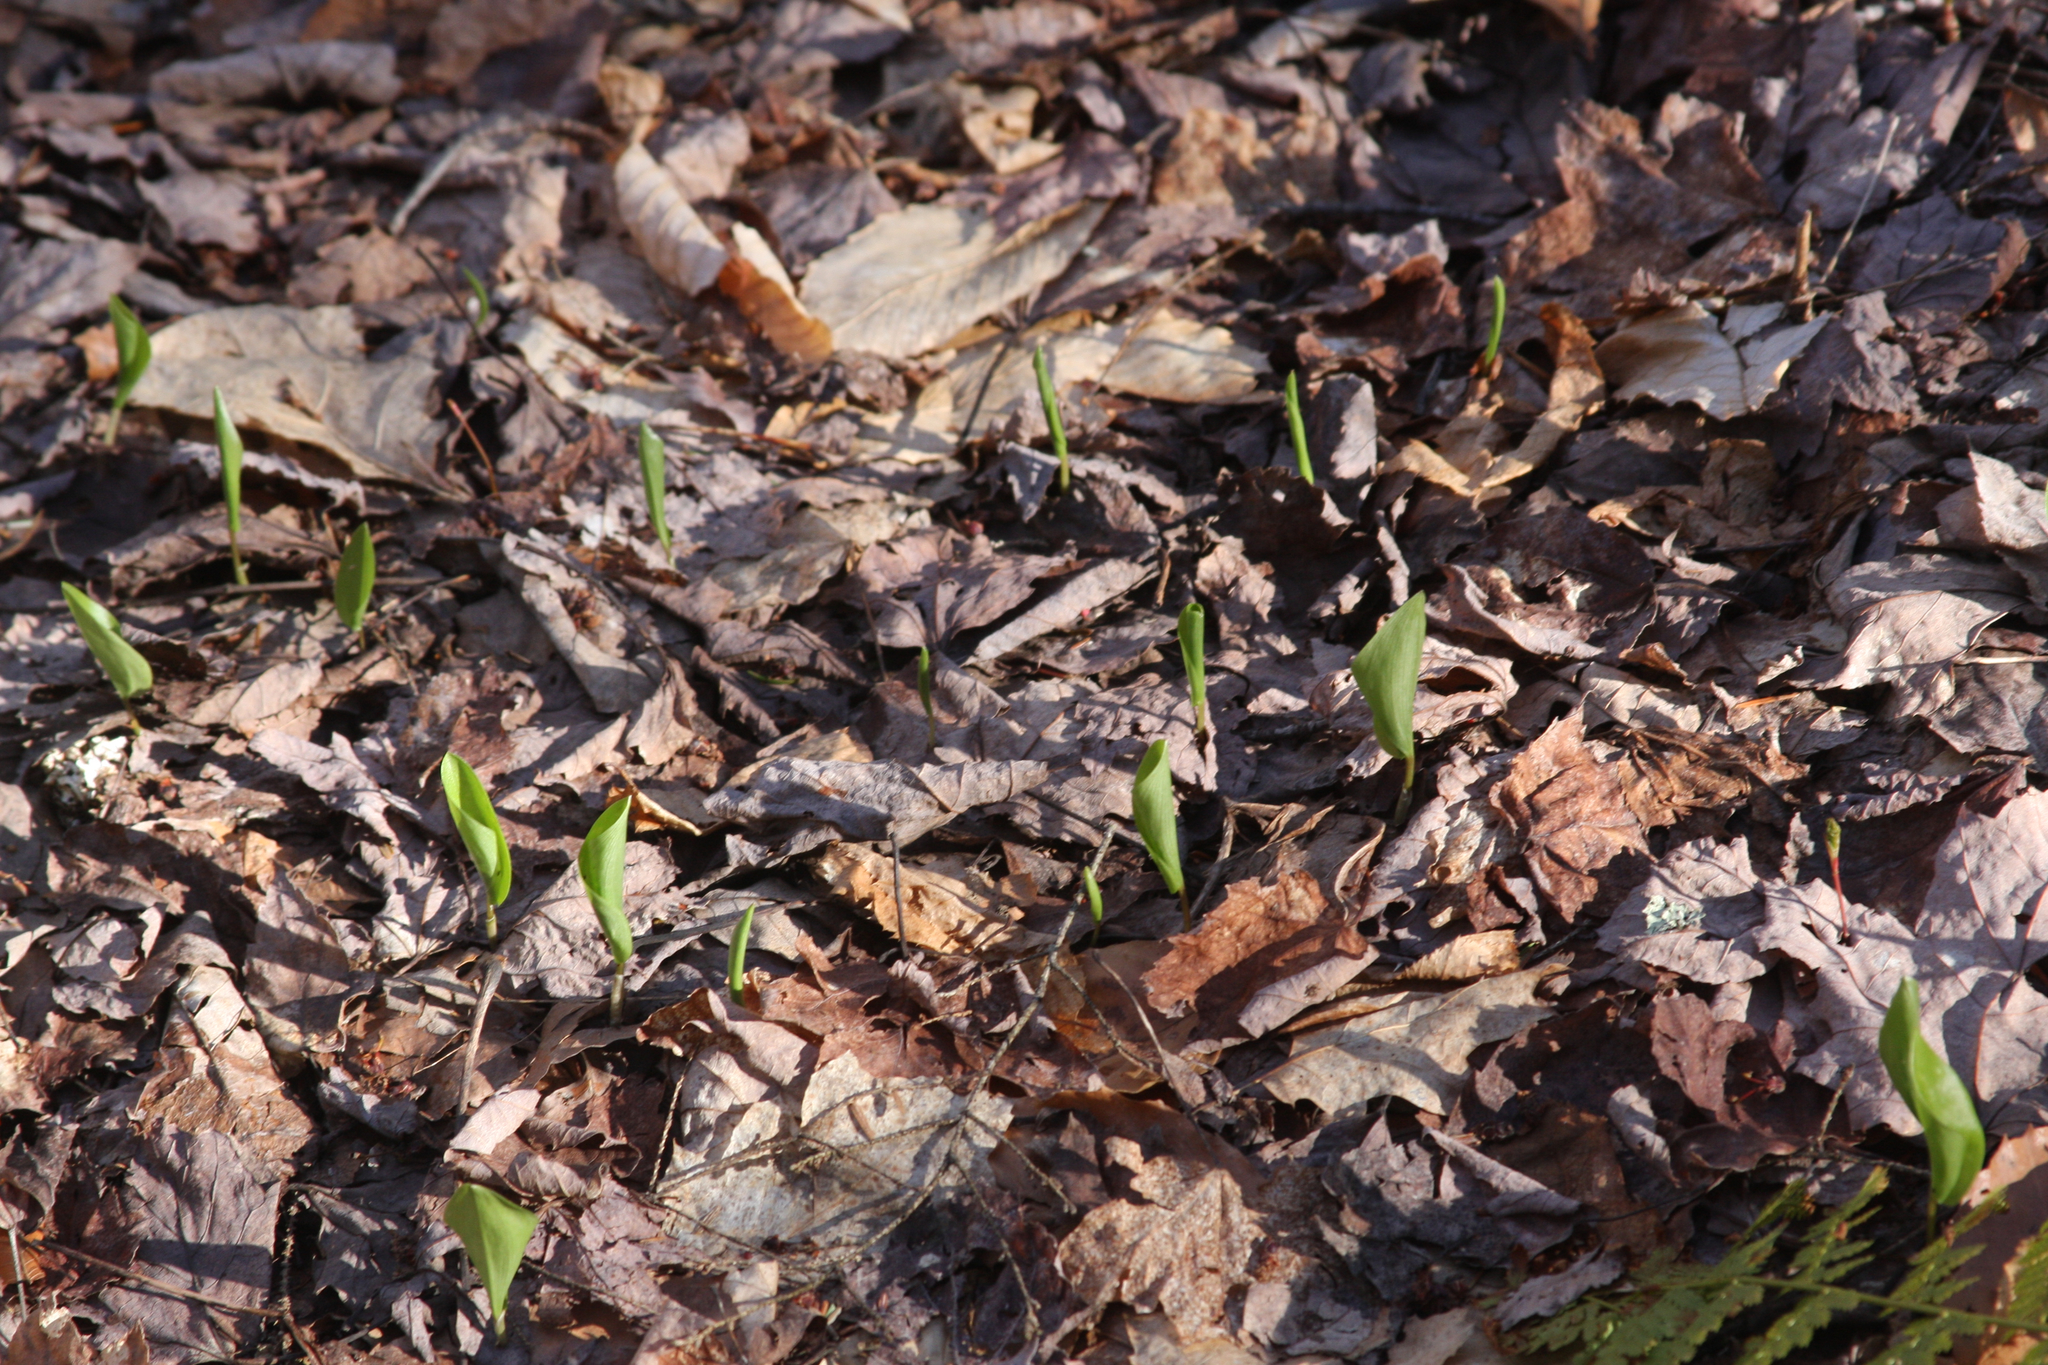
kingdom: Plantae
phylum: Tracheophyta
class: Liliopsida
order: Asparagales
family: Asparagaceae
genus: Maianthemum
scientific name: Maianthemum canadense
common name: False lily-of-the-valley
